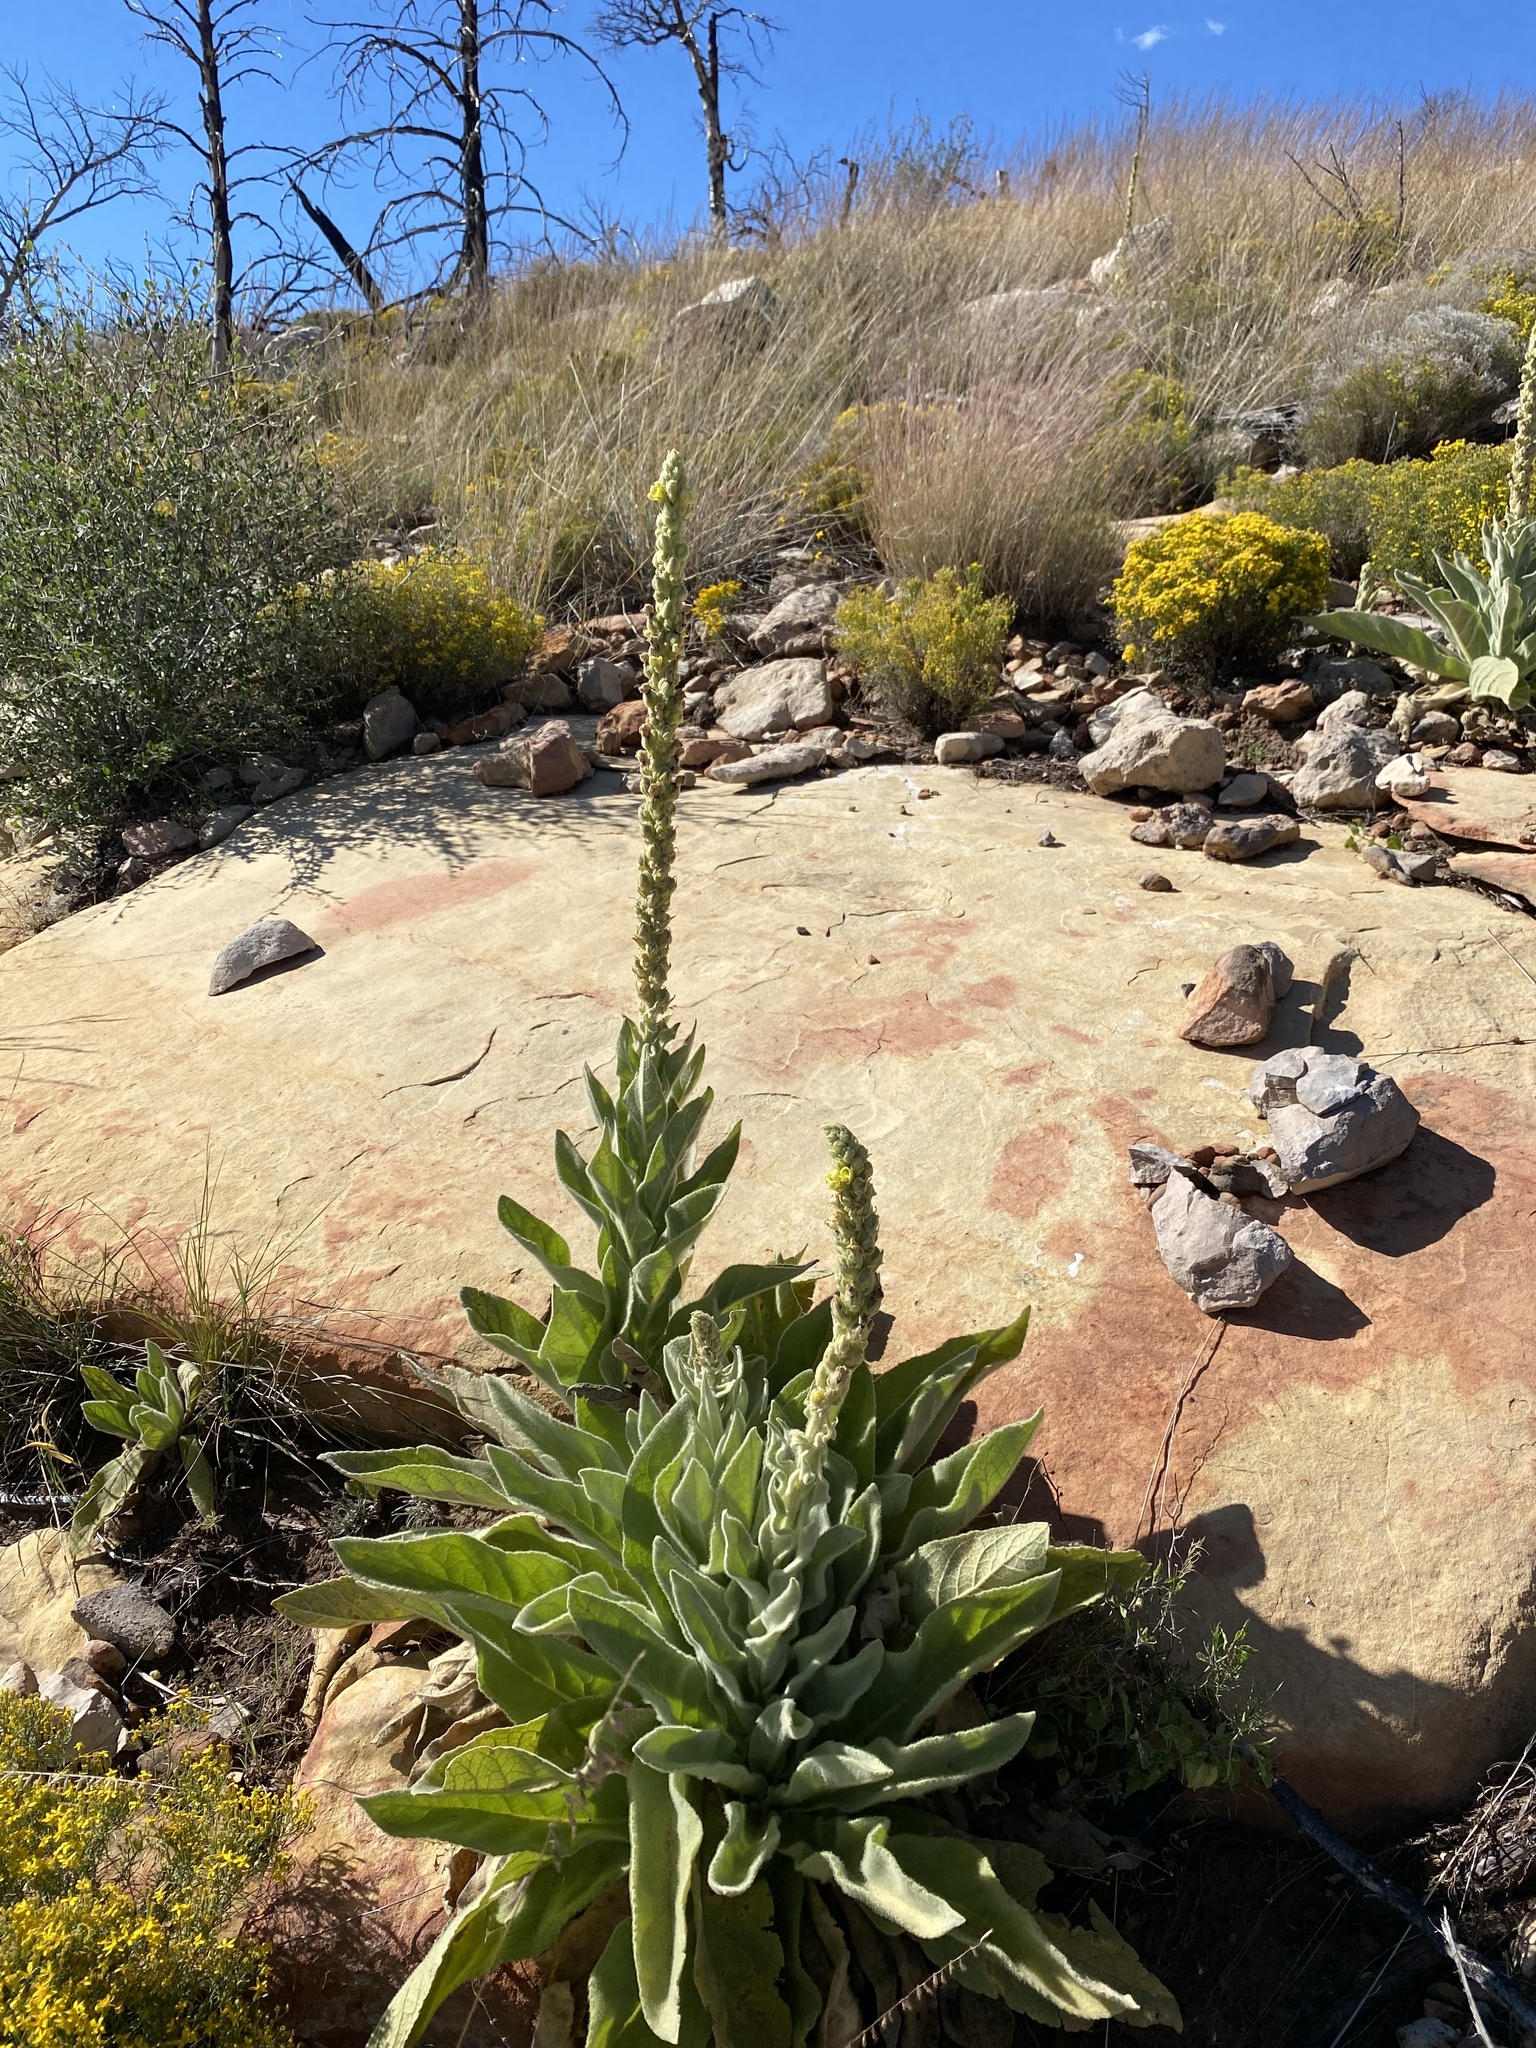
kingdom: Plantae
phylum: Tracheophyta
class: Magnoliopsida
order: Lamiales
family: Scrophulariaceae
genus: Verbascum
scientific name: Verbascum thapsus
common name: Common mullein
